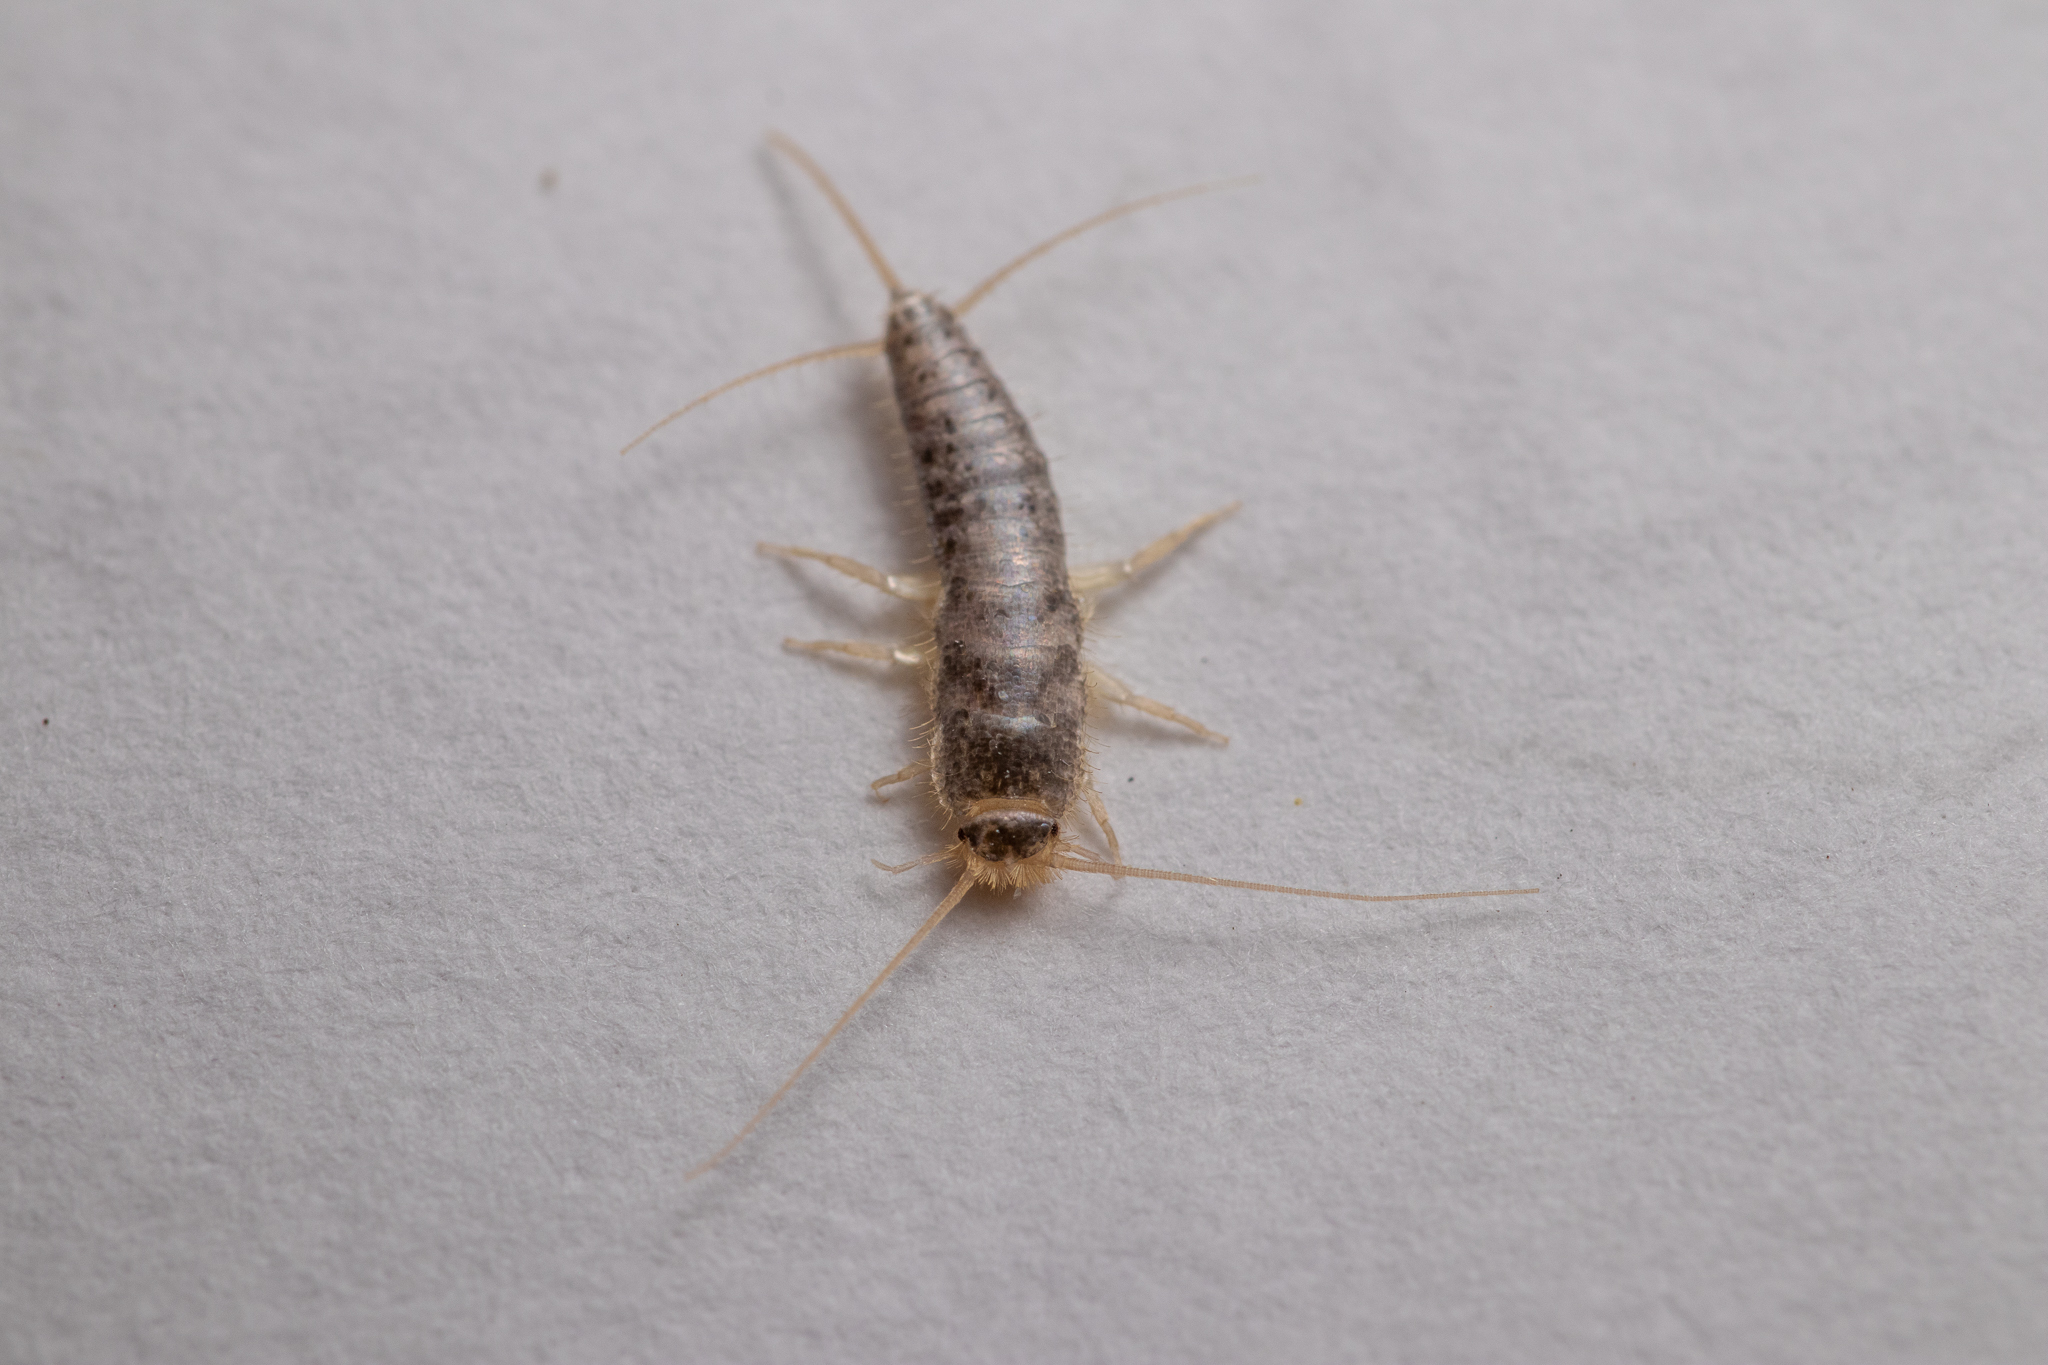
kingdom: Animalia
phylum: Arthropoda
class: Insecta
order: Zygentoma
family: Lepismatidae
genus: Ctenolepisma
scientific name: Ctenolepisma longicaudatum
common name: Silverfish
